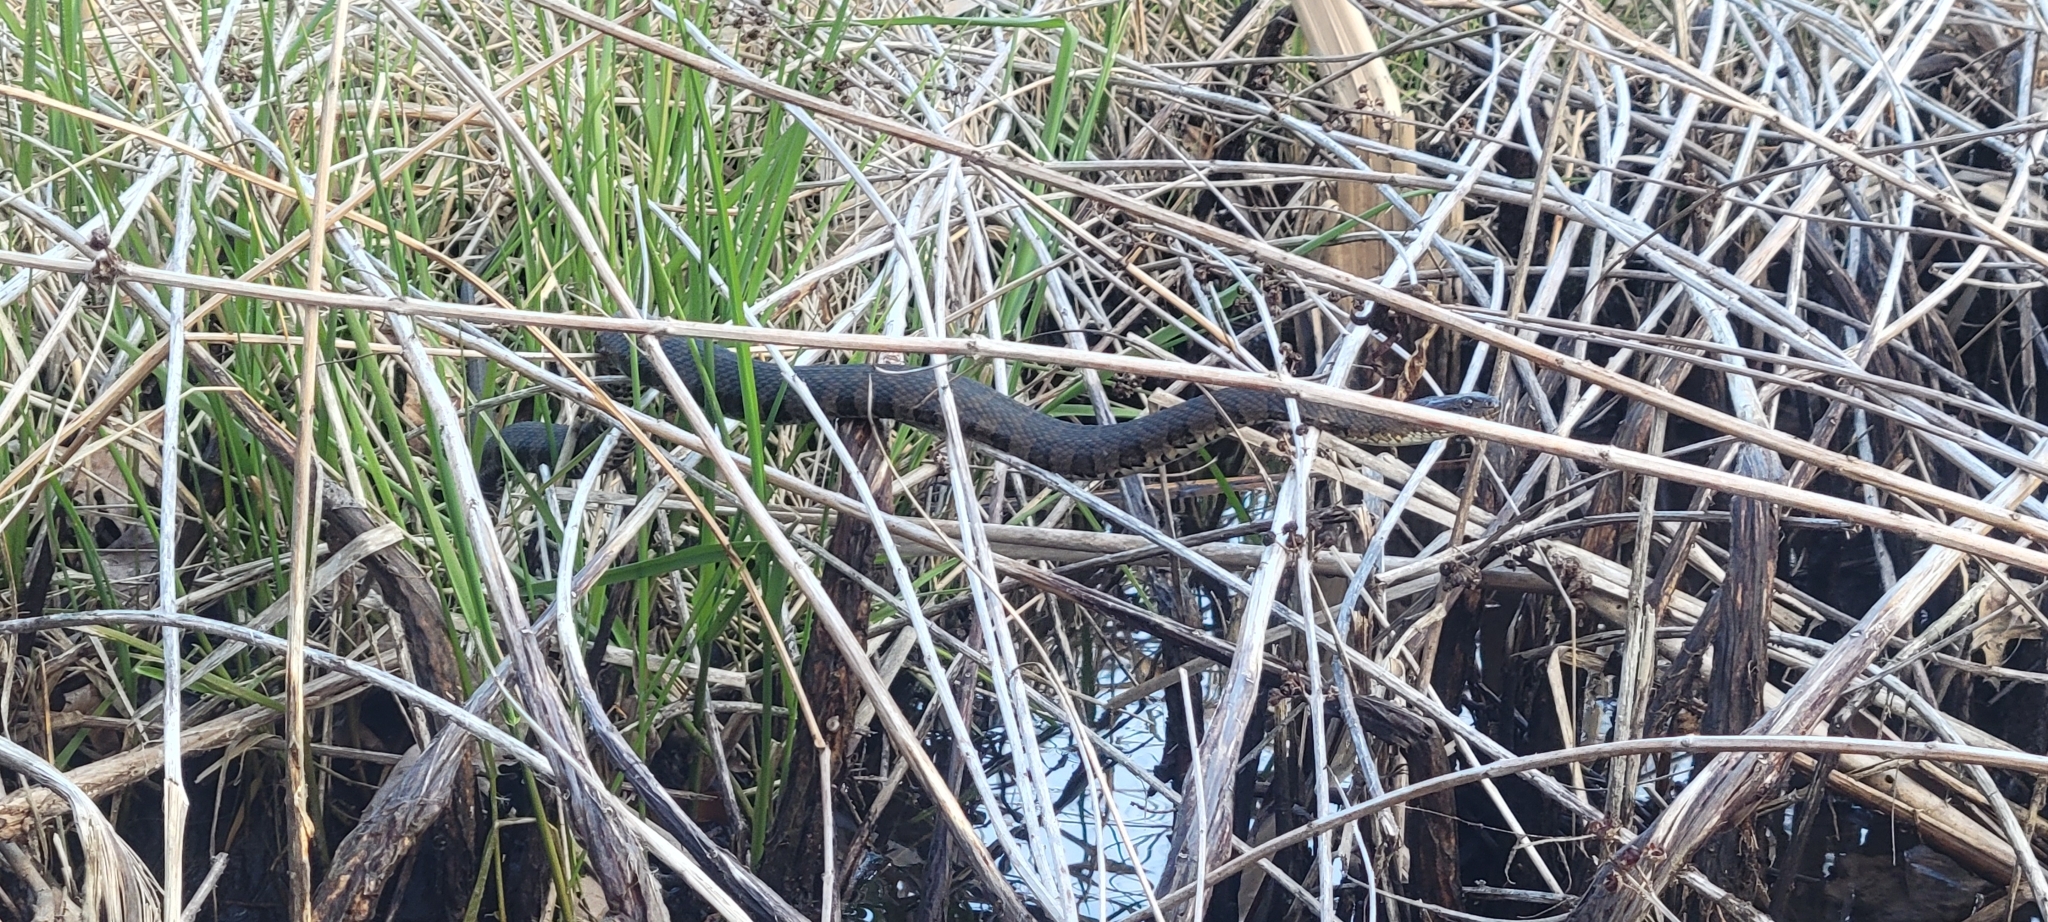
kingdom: Animalia
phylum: Chordata
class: Squamata
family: Colubridae
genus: Nerodia
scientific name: Nerodia sipedon
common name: Northern water snake
